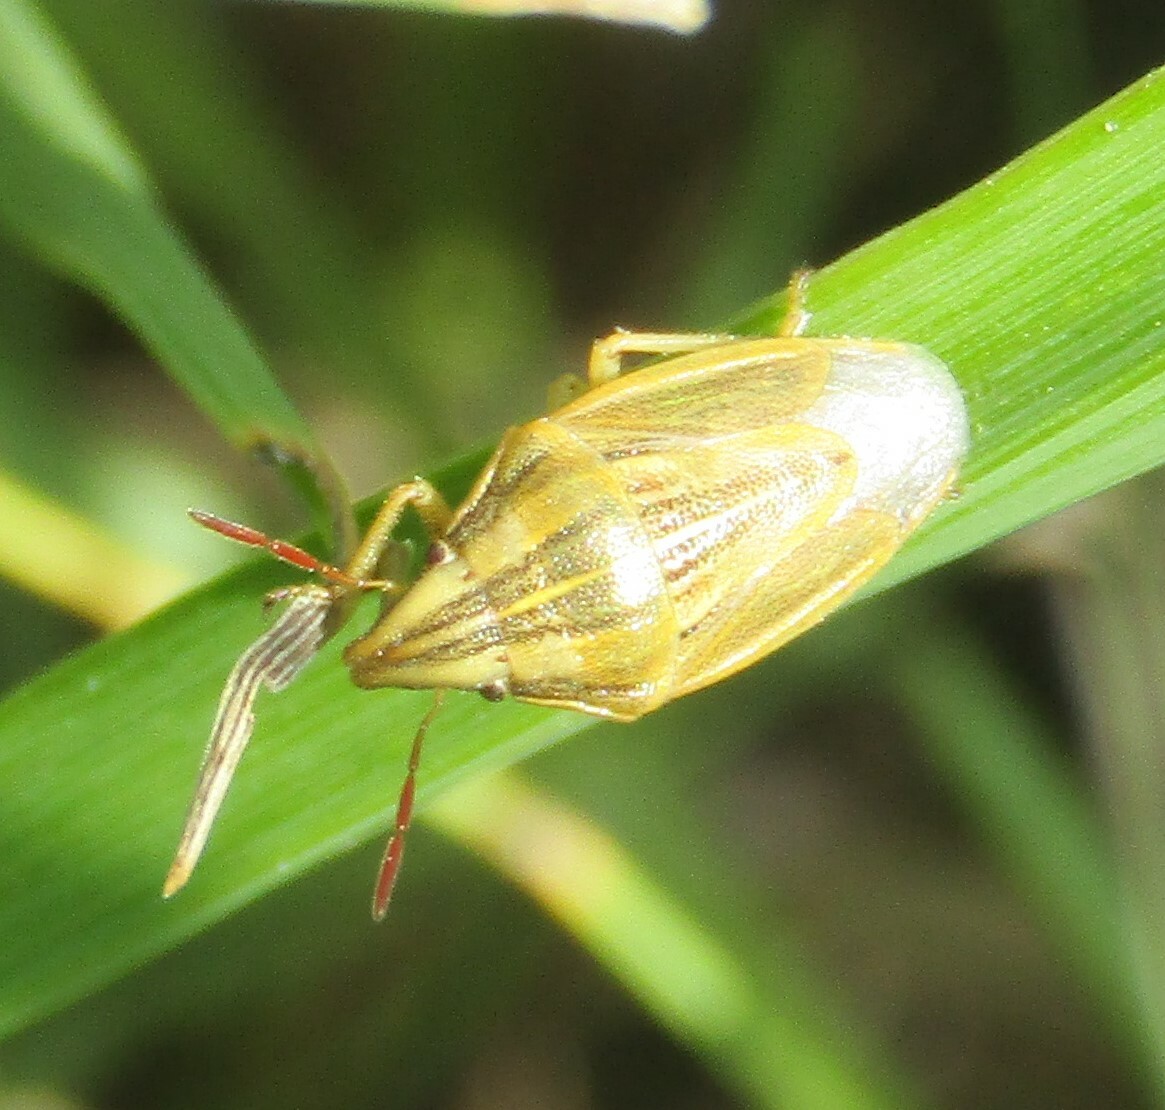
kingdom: Animalia
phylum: Arthropoda
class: Insecta
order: Hemiptera
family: Pentatomidae
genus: Aelia
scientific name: Aelia acuminata
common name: Bishop's mitre
